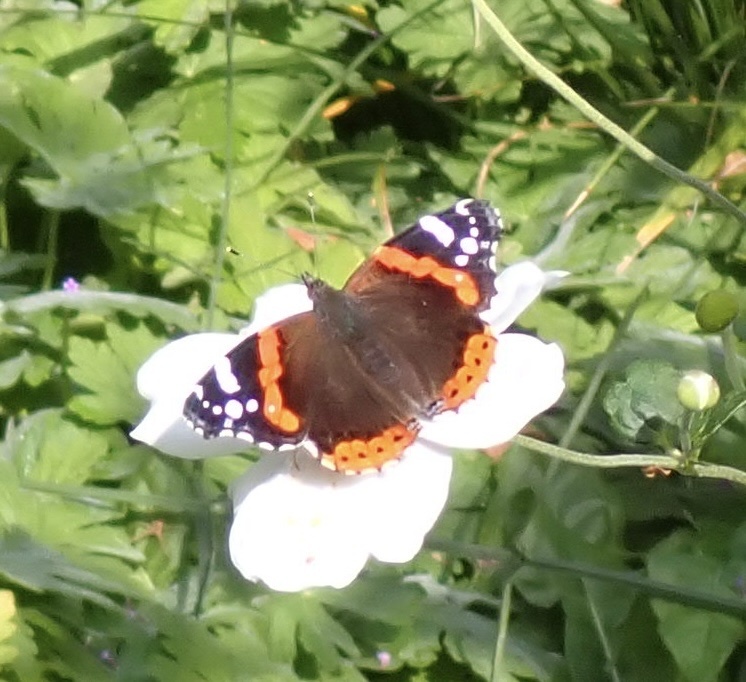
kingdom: Animalia
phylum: Arthropoda
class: Insecta
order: Lepidoptera
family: Nymphalidae
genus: Vanessa
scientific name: Vanessa atalanta
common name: Red admiral
